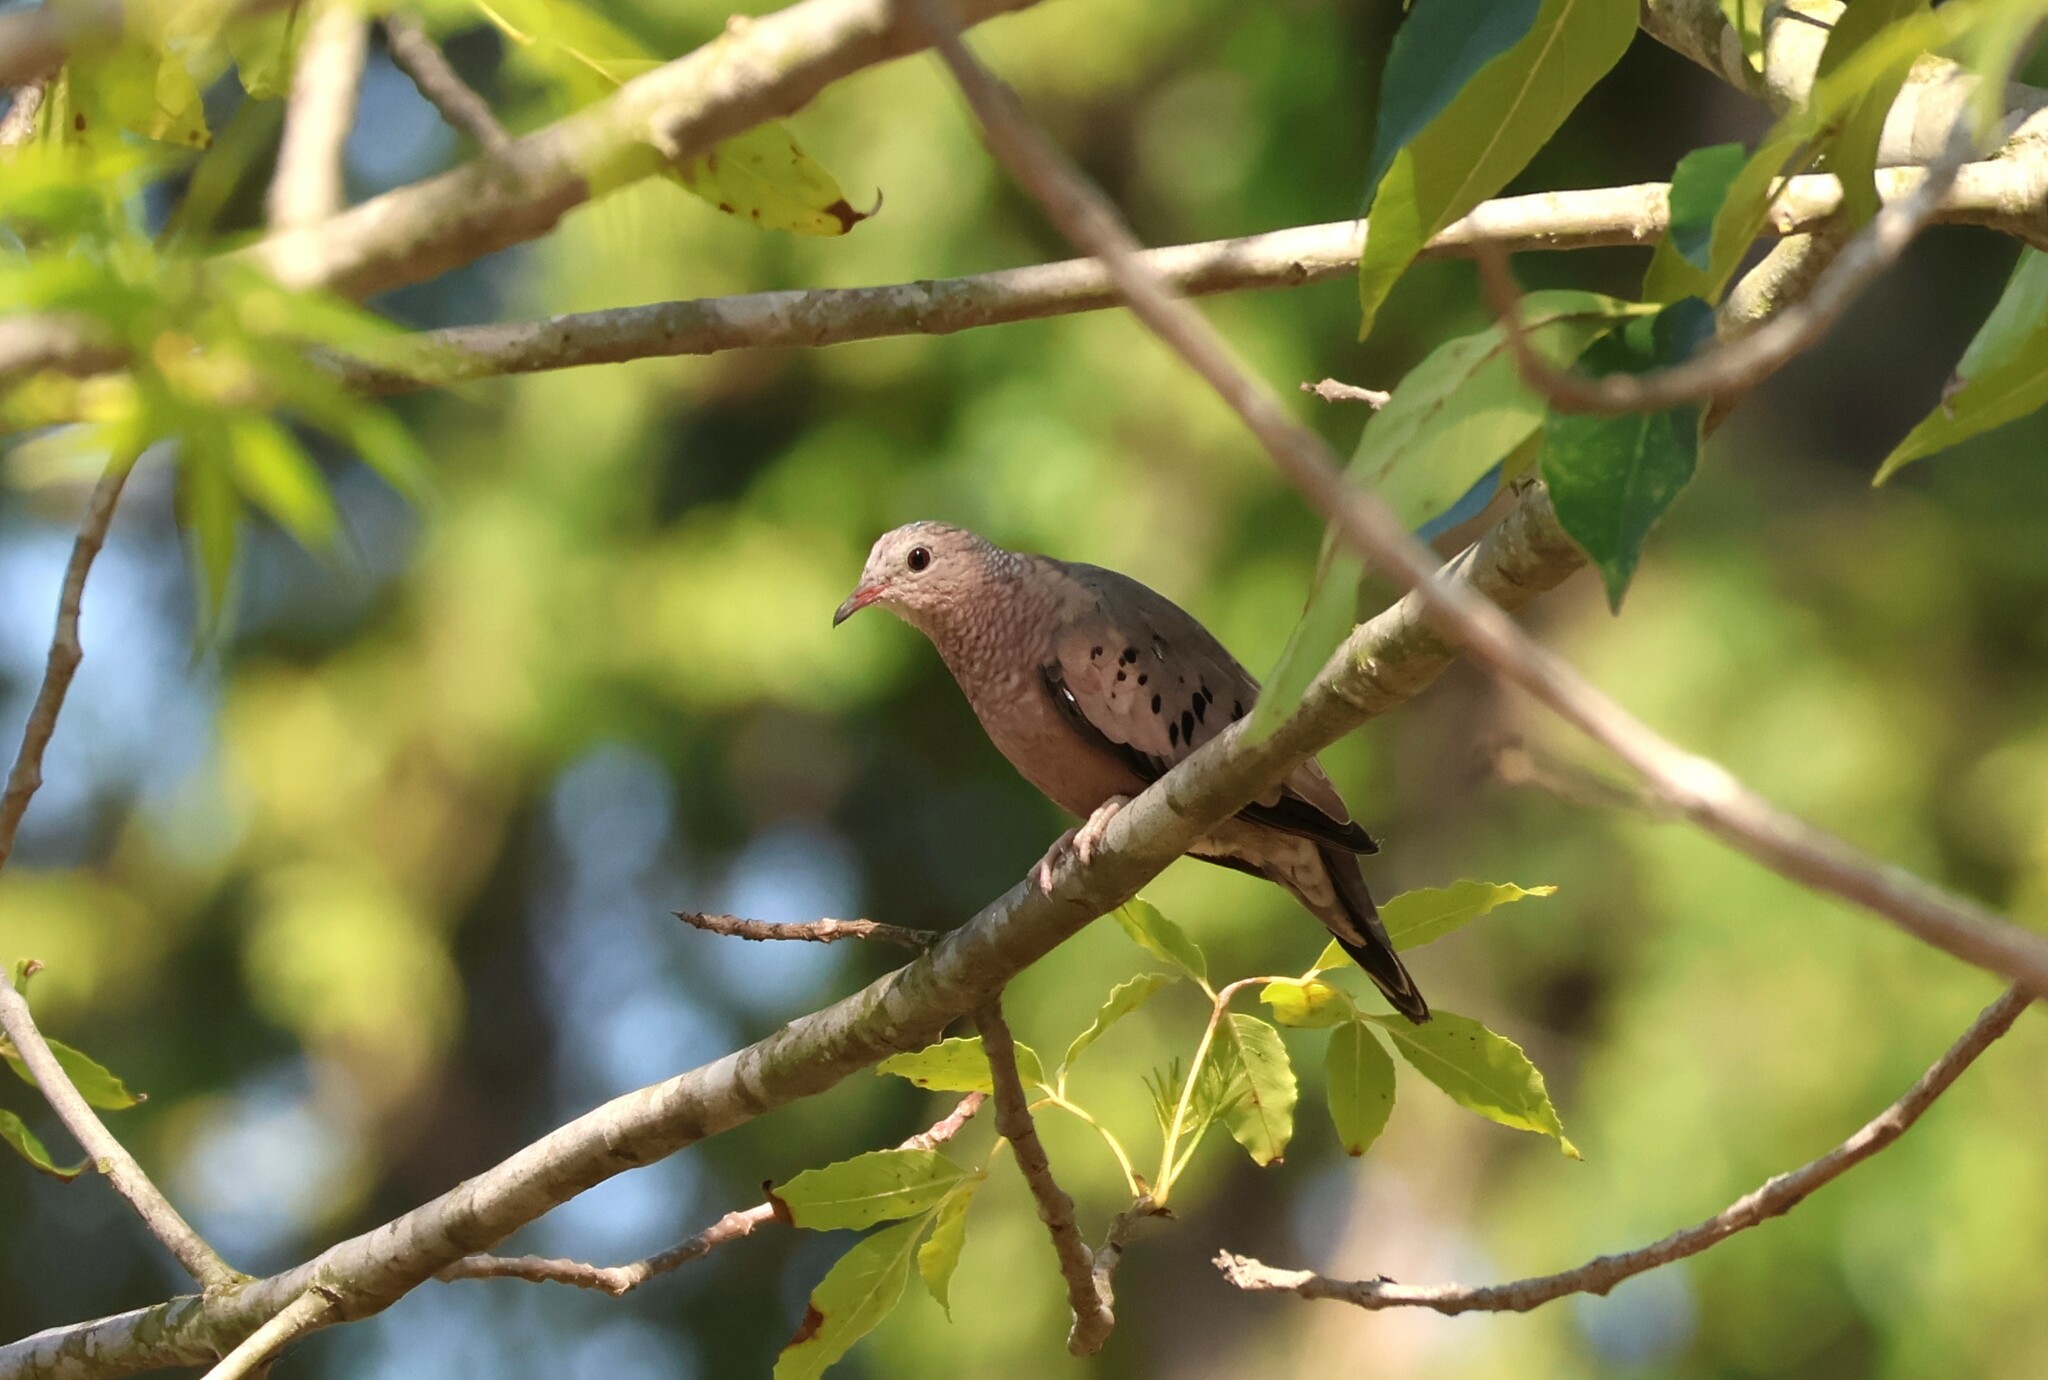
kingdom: Animalia
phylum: Chordata
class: Aves
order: Columbiformes
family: Columbidae
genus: Columbina
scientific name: Columbina passerina
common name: Common ground-dove
